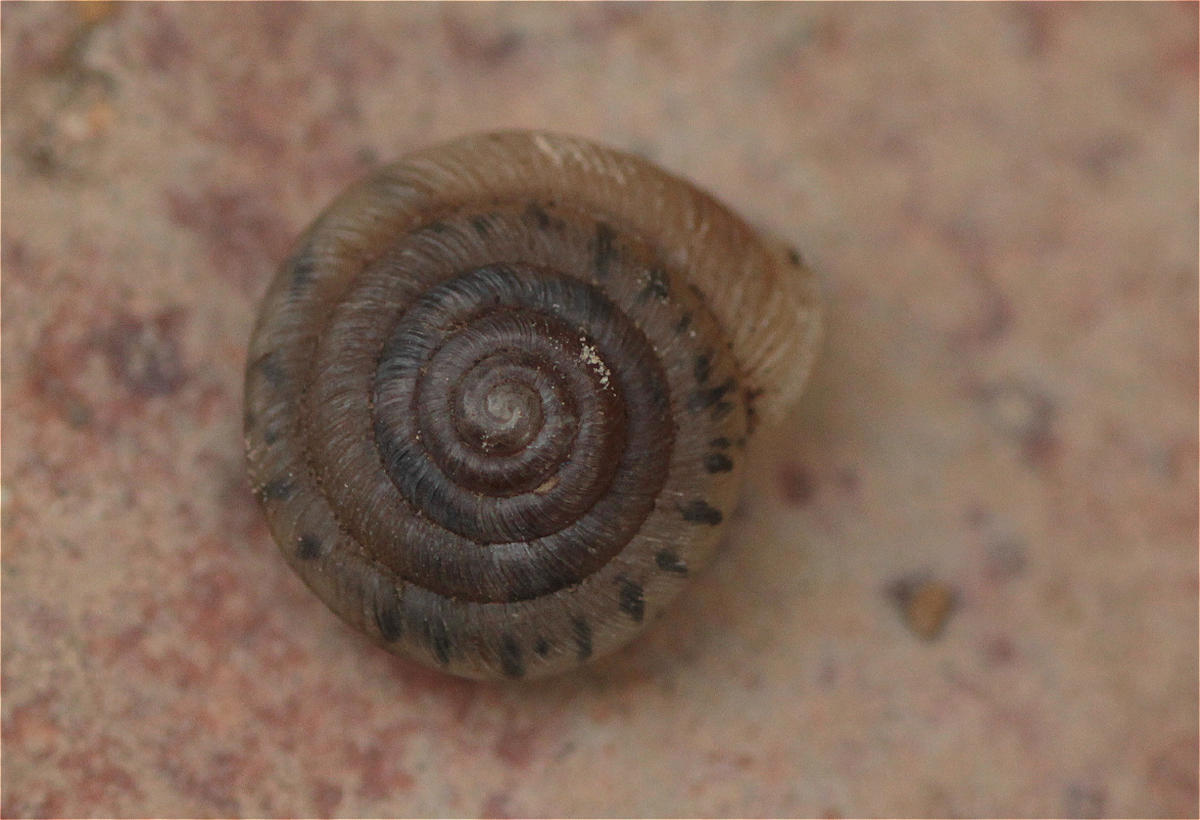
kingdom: Animalia
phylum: Mollusca
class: Gastropoda
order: Stylommatophora
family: Polygyridae
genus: Polygyra
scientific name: Polygyra cereolus
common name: Southern flatcone snail
